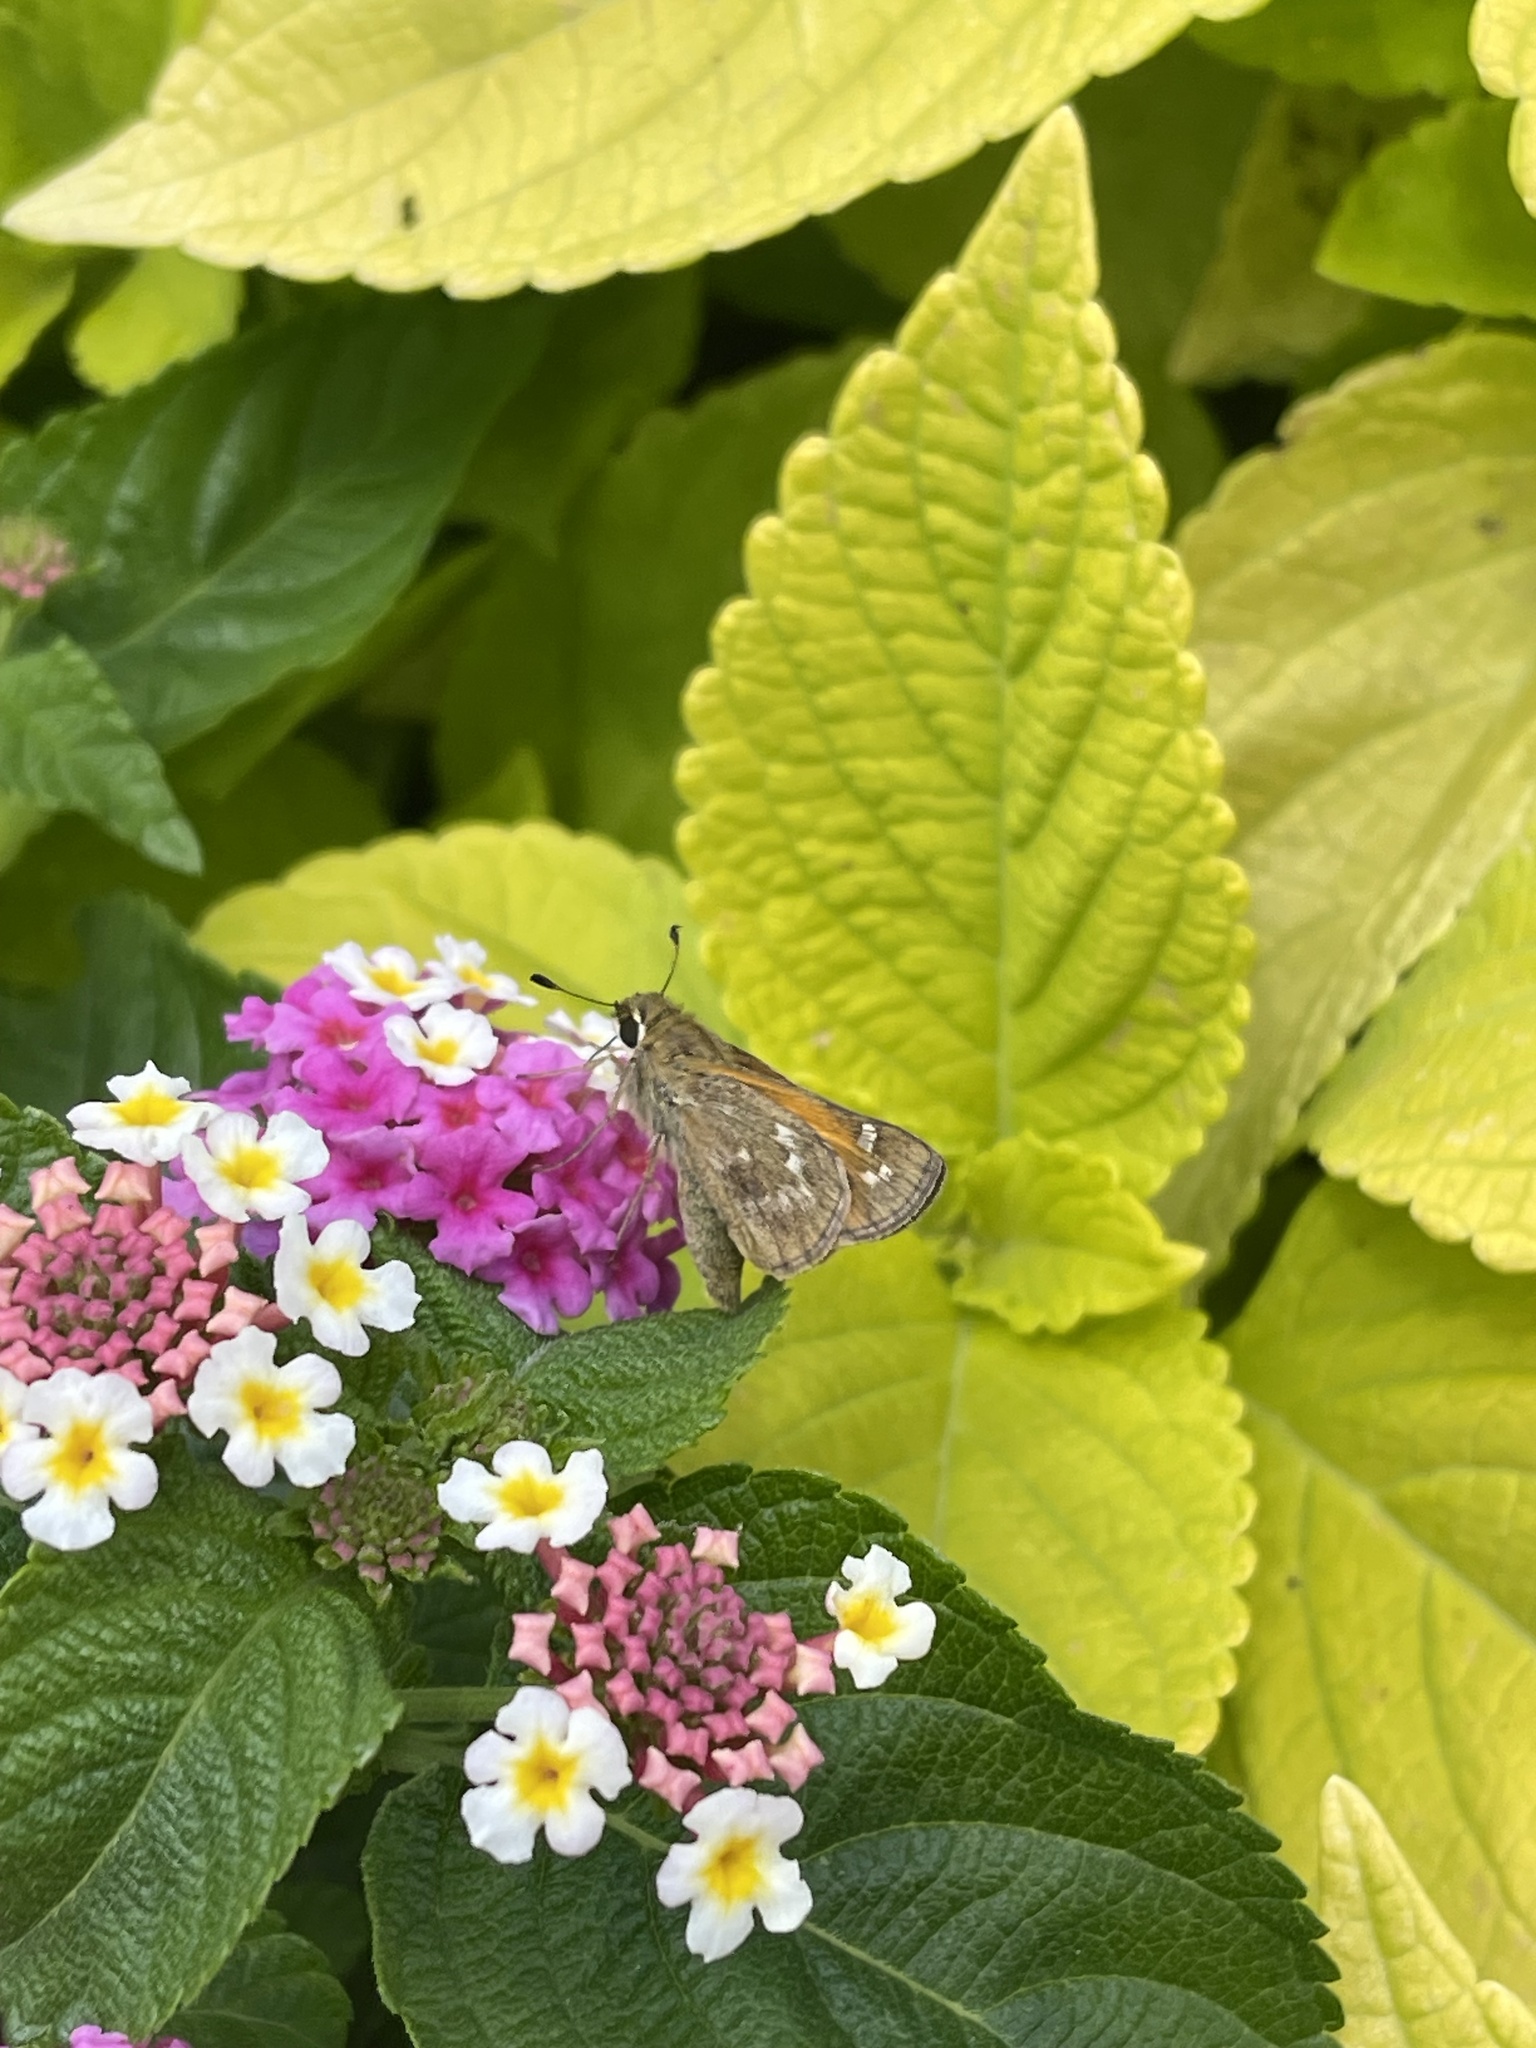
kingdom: Animalia
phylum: Arthropoda
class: Insecta
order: Lepidoptera
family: Hesperiidae
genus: Atalopedes
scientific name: Atalopedes
